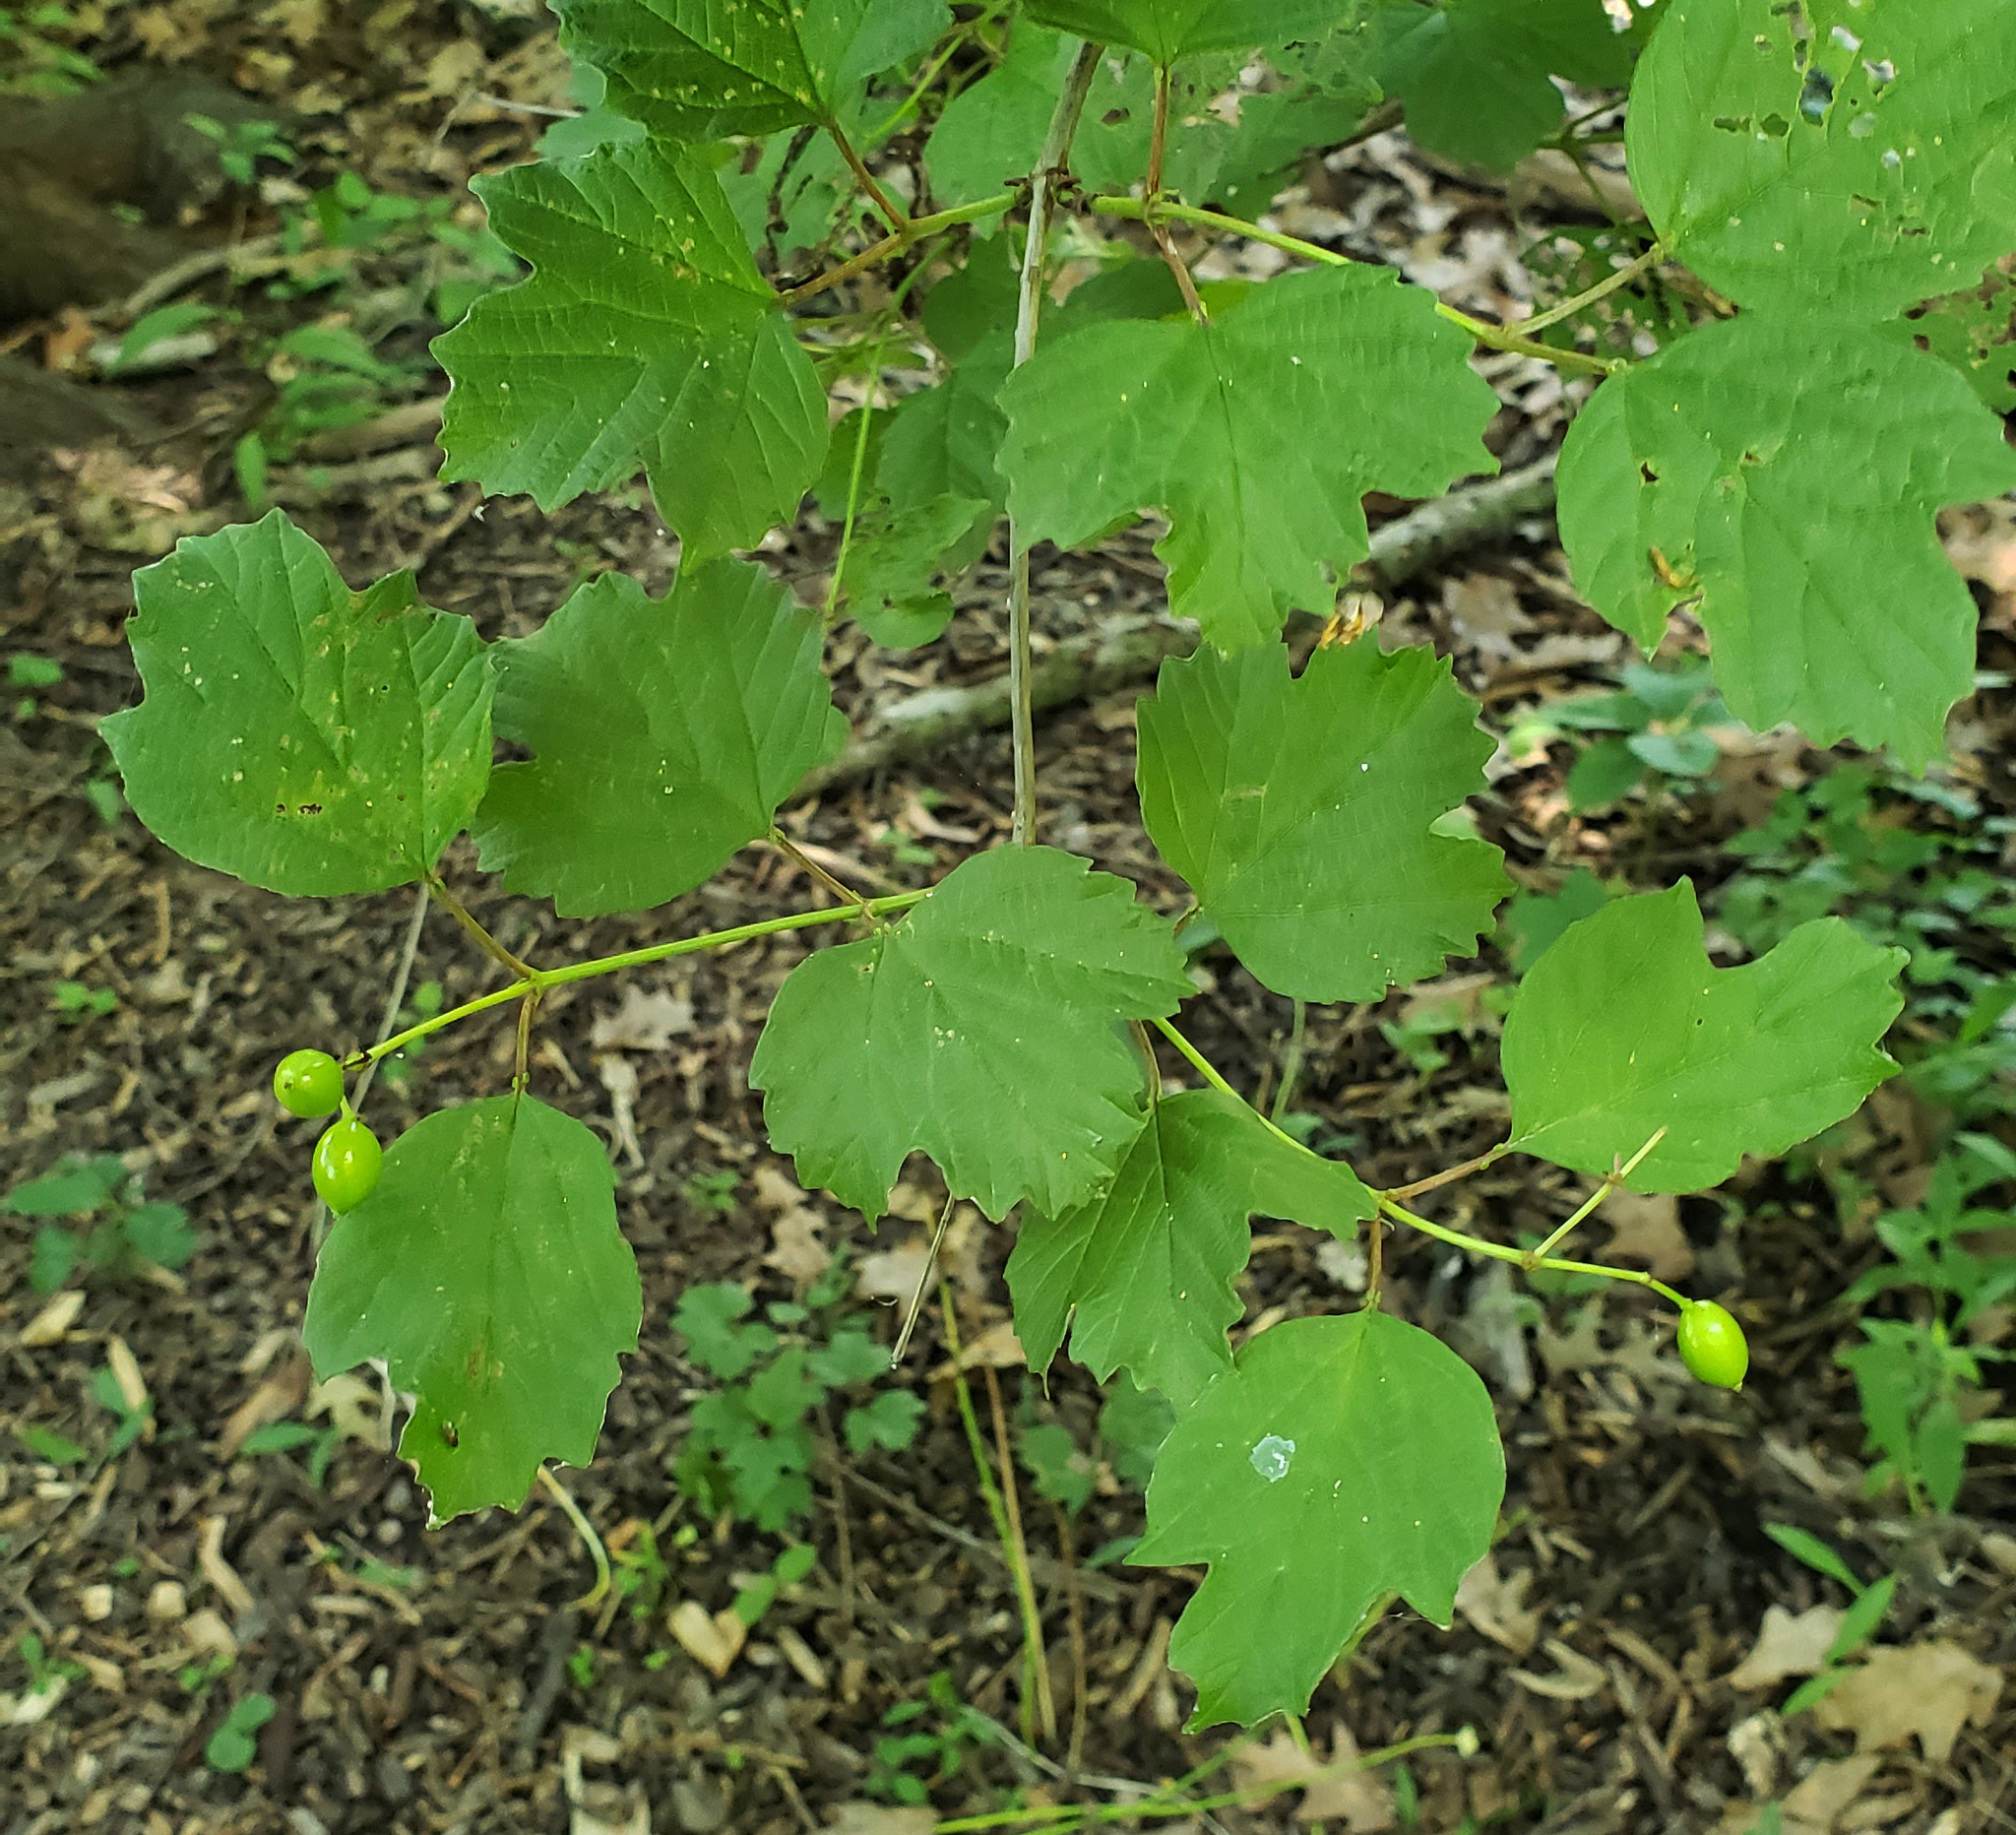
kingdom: Plantae
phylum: Tracheophyta
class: Magnoliopsida
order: Dipsacales
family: Viburnaceae
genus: Viburnum
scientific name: Viburnum opulus
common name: Guelder-rose
